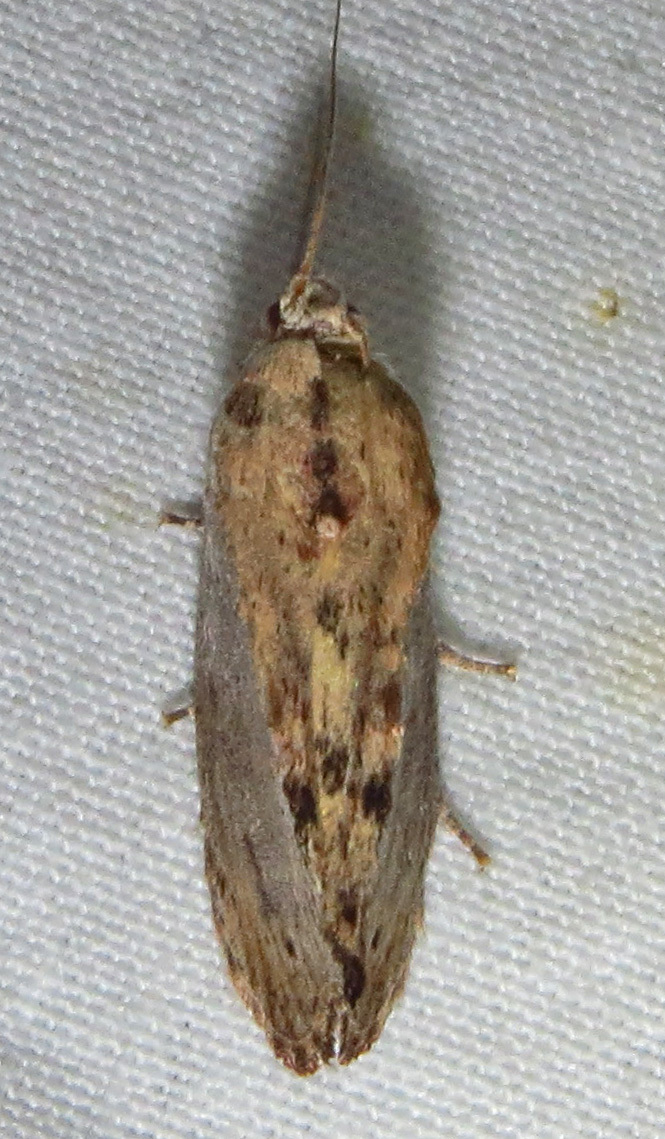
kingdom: Animalia
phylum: Arthropoda
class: Insecta
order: Lepidoptera
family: Pyralidae
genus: Galleria
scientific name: Galleria mellonella
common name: Greater wax moth
